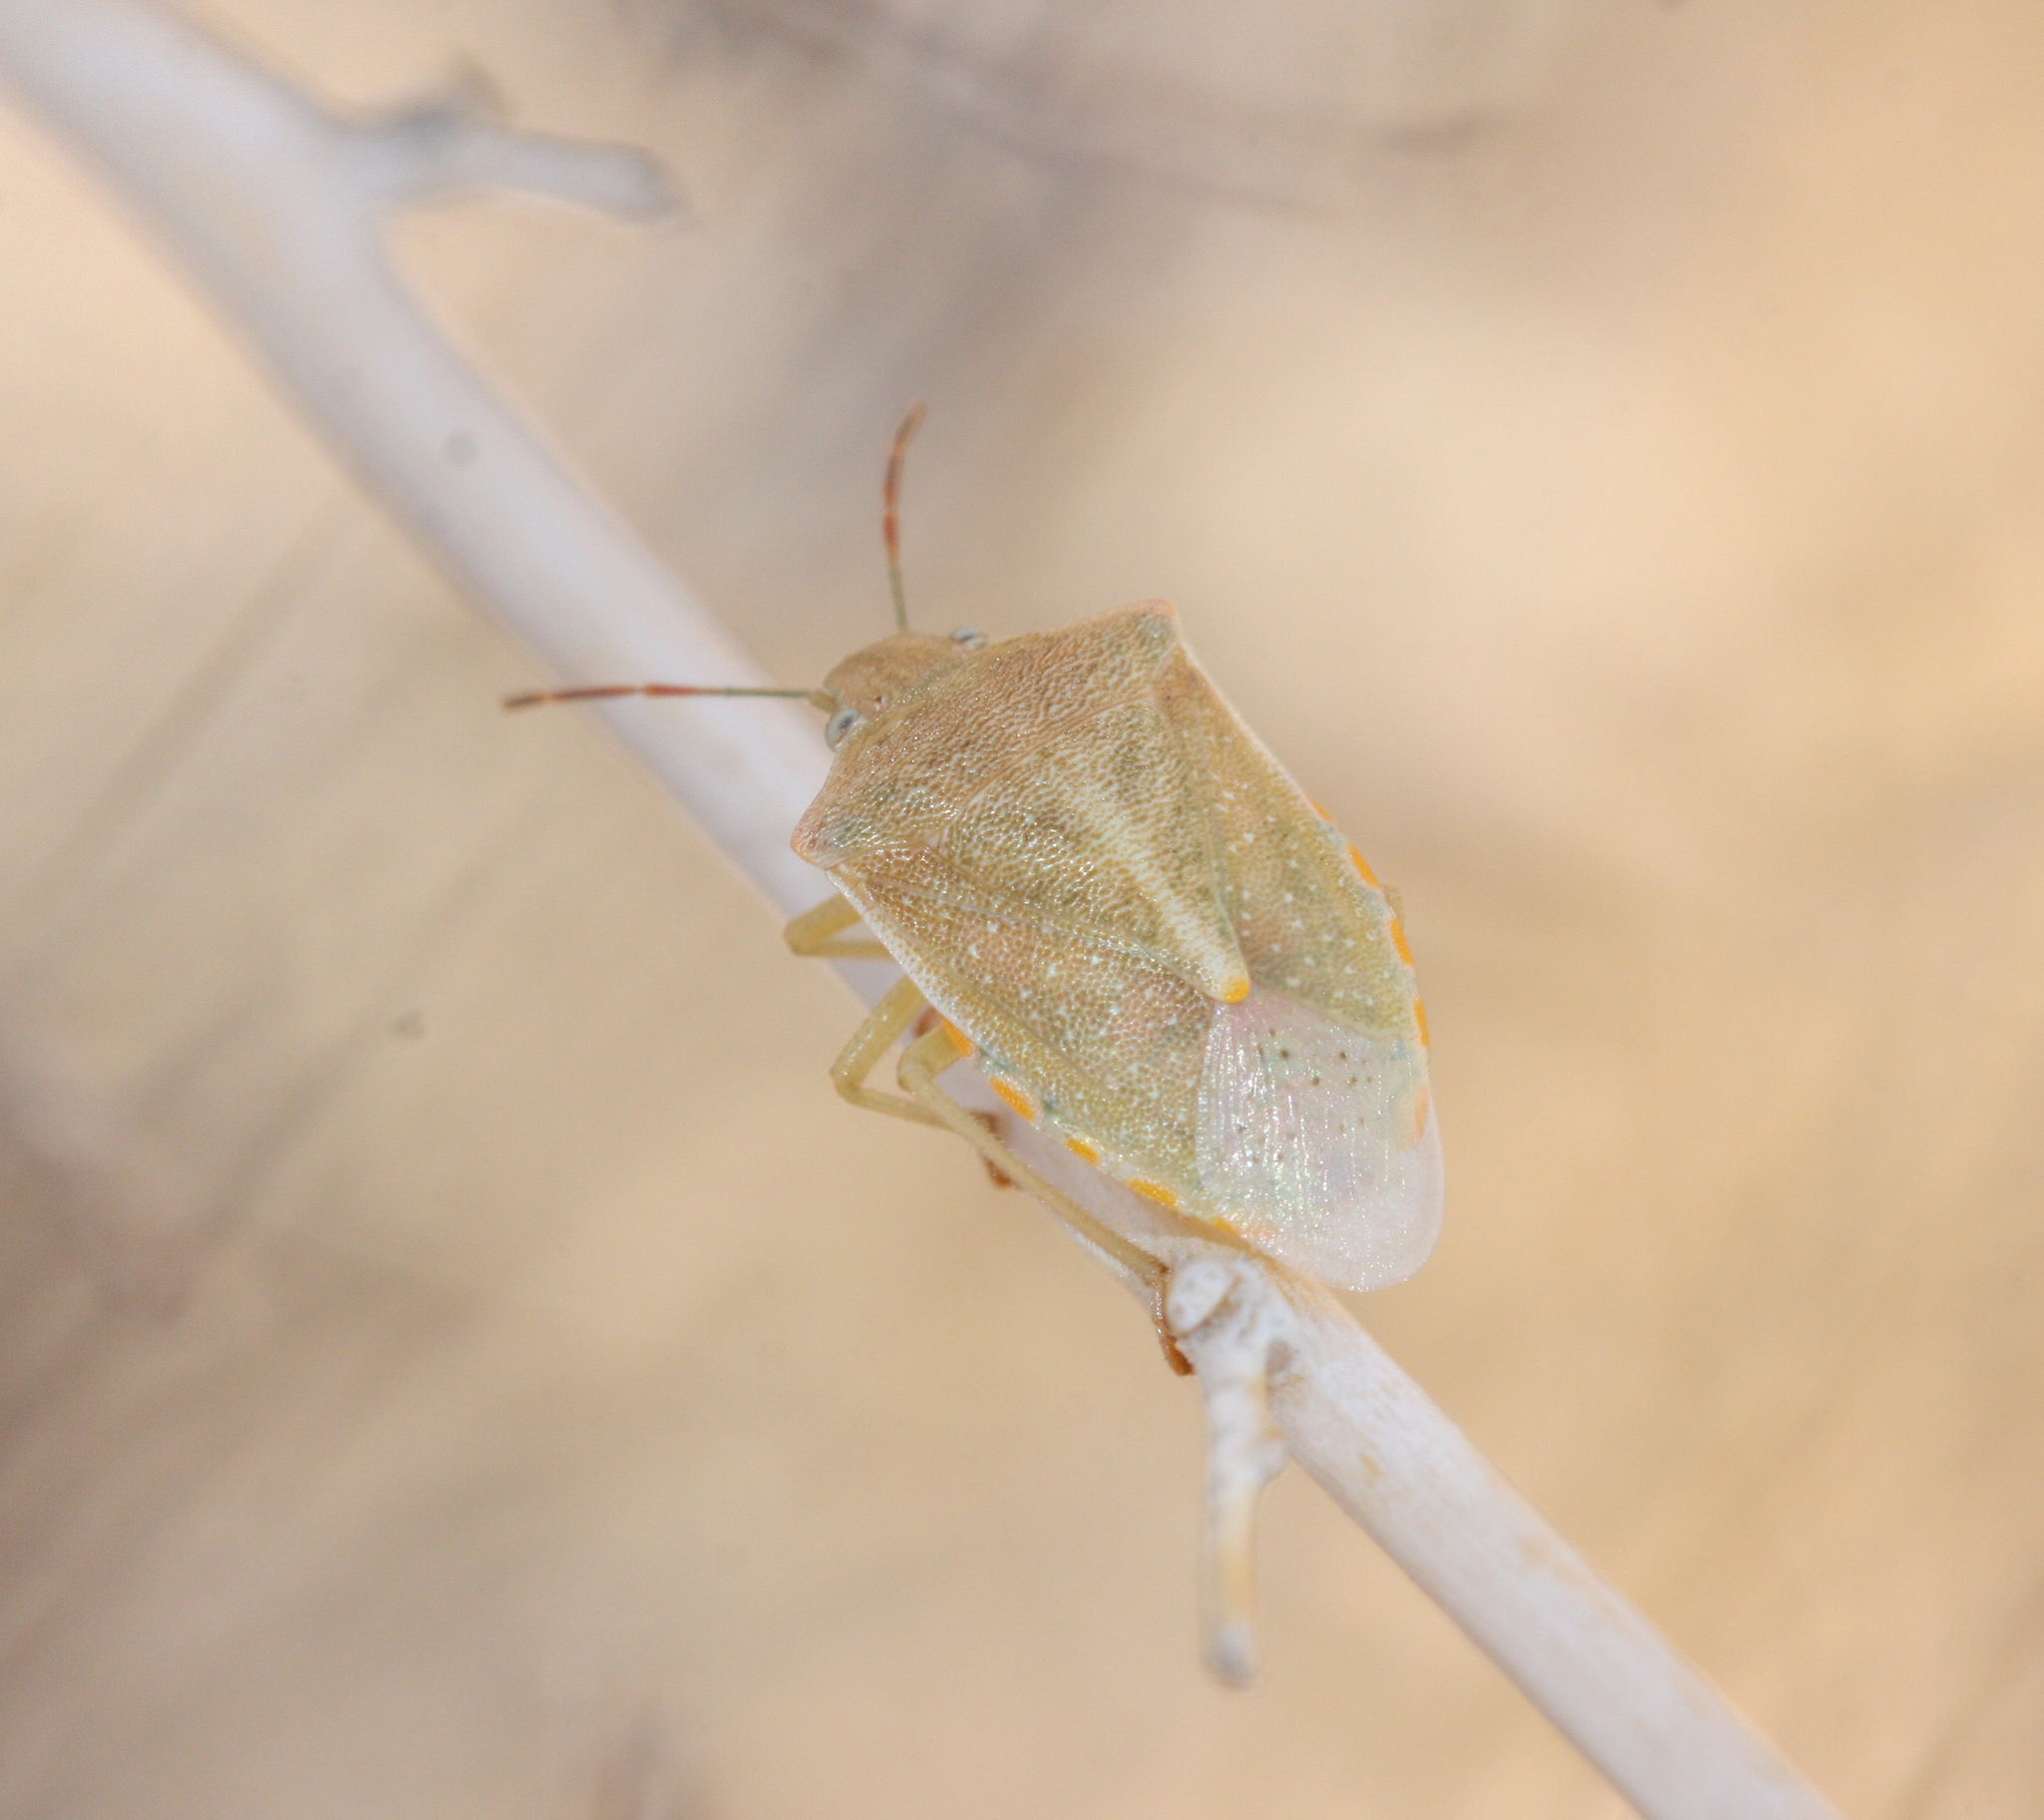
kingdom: Animalia
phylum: Arthropoda
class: Insecta
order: Hemiptera
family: Pentatomidae
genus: Thyanta
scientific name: Thyanta accerra
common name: Stink bug
